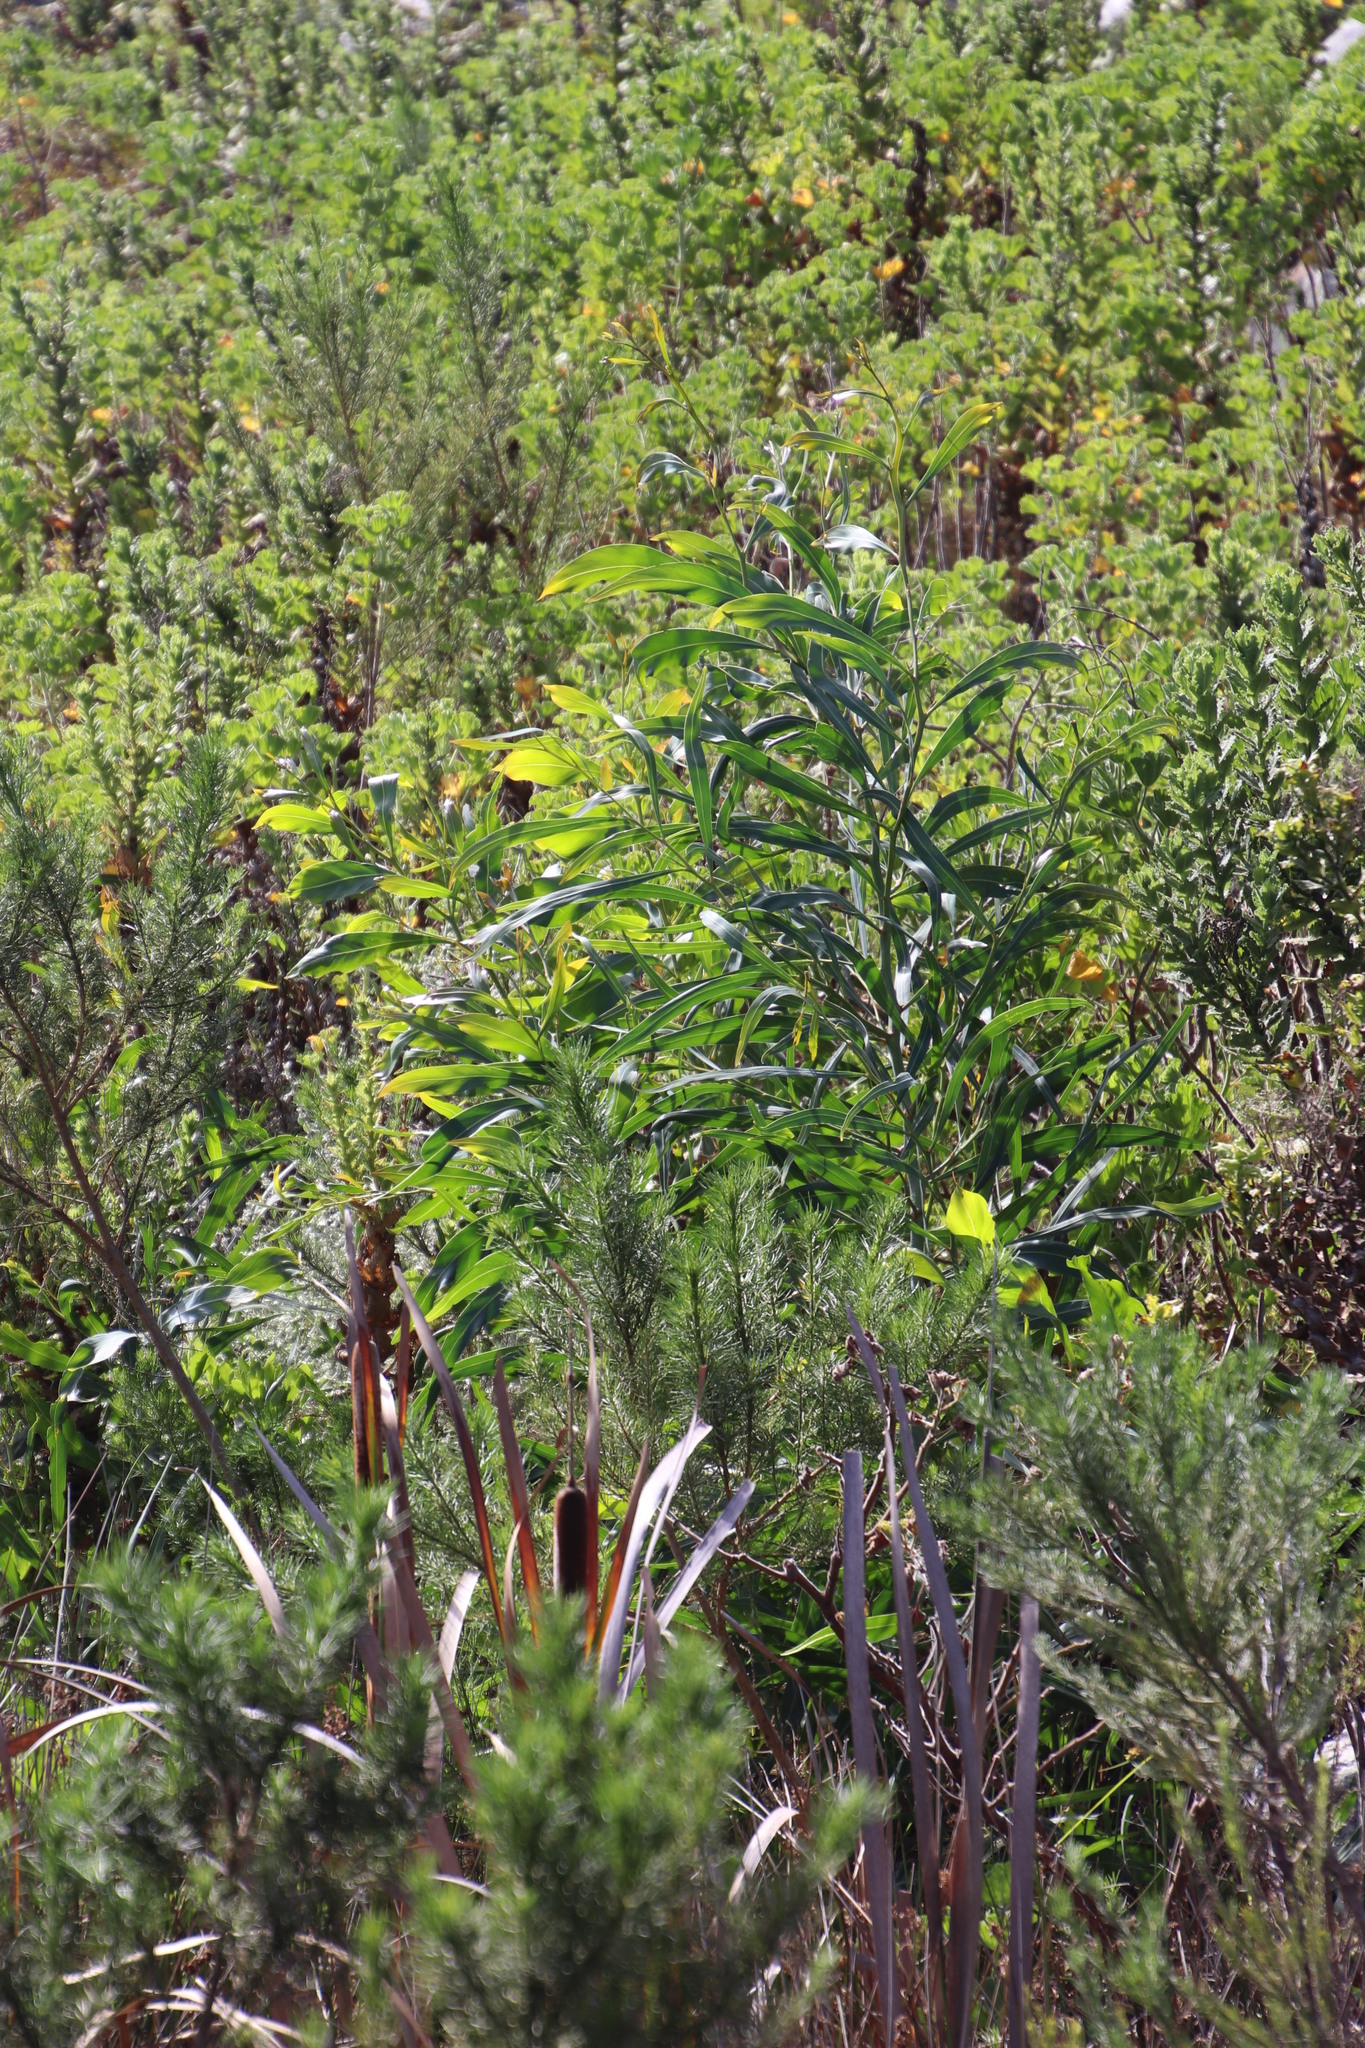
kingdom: Plantae
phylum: Tracheophyta
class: Magnoliopsida
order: Fabales
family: Fabaceae
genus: Acacia
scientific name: Acacia saligna
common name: Orange wattle
